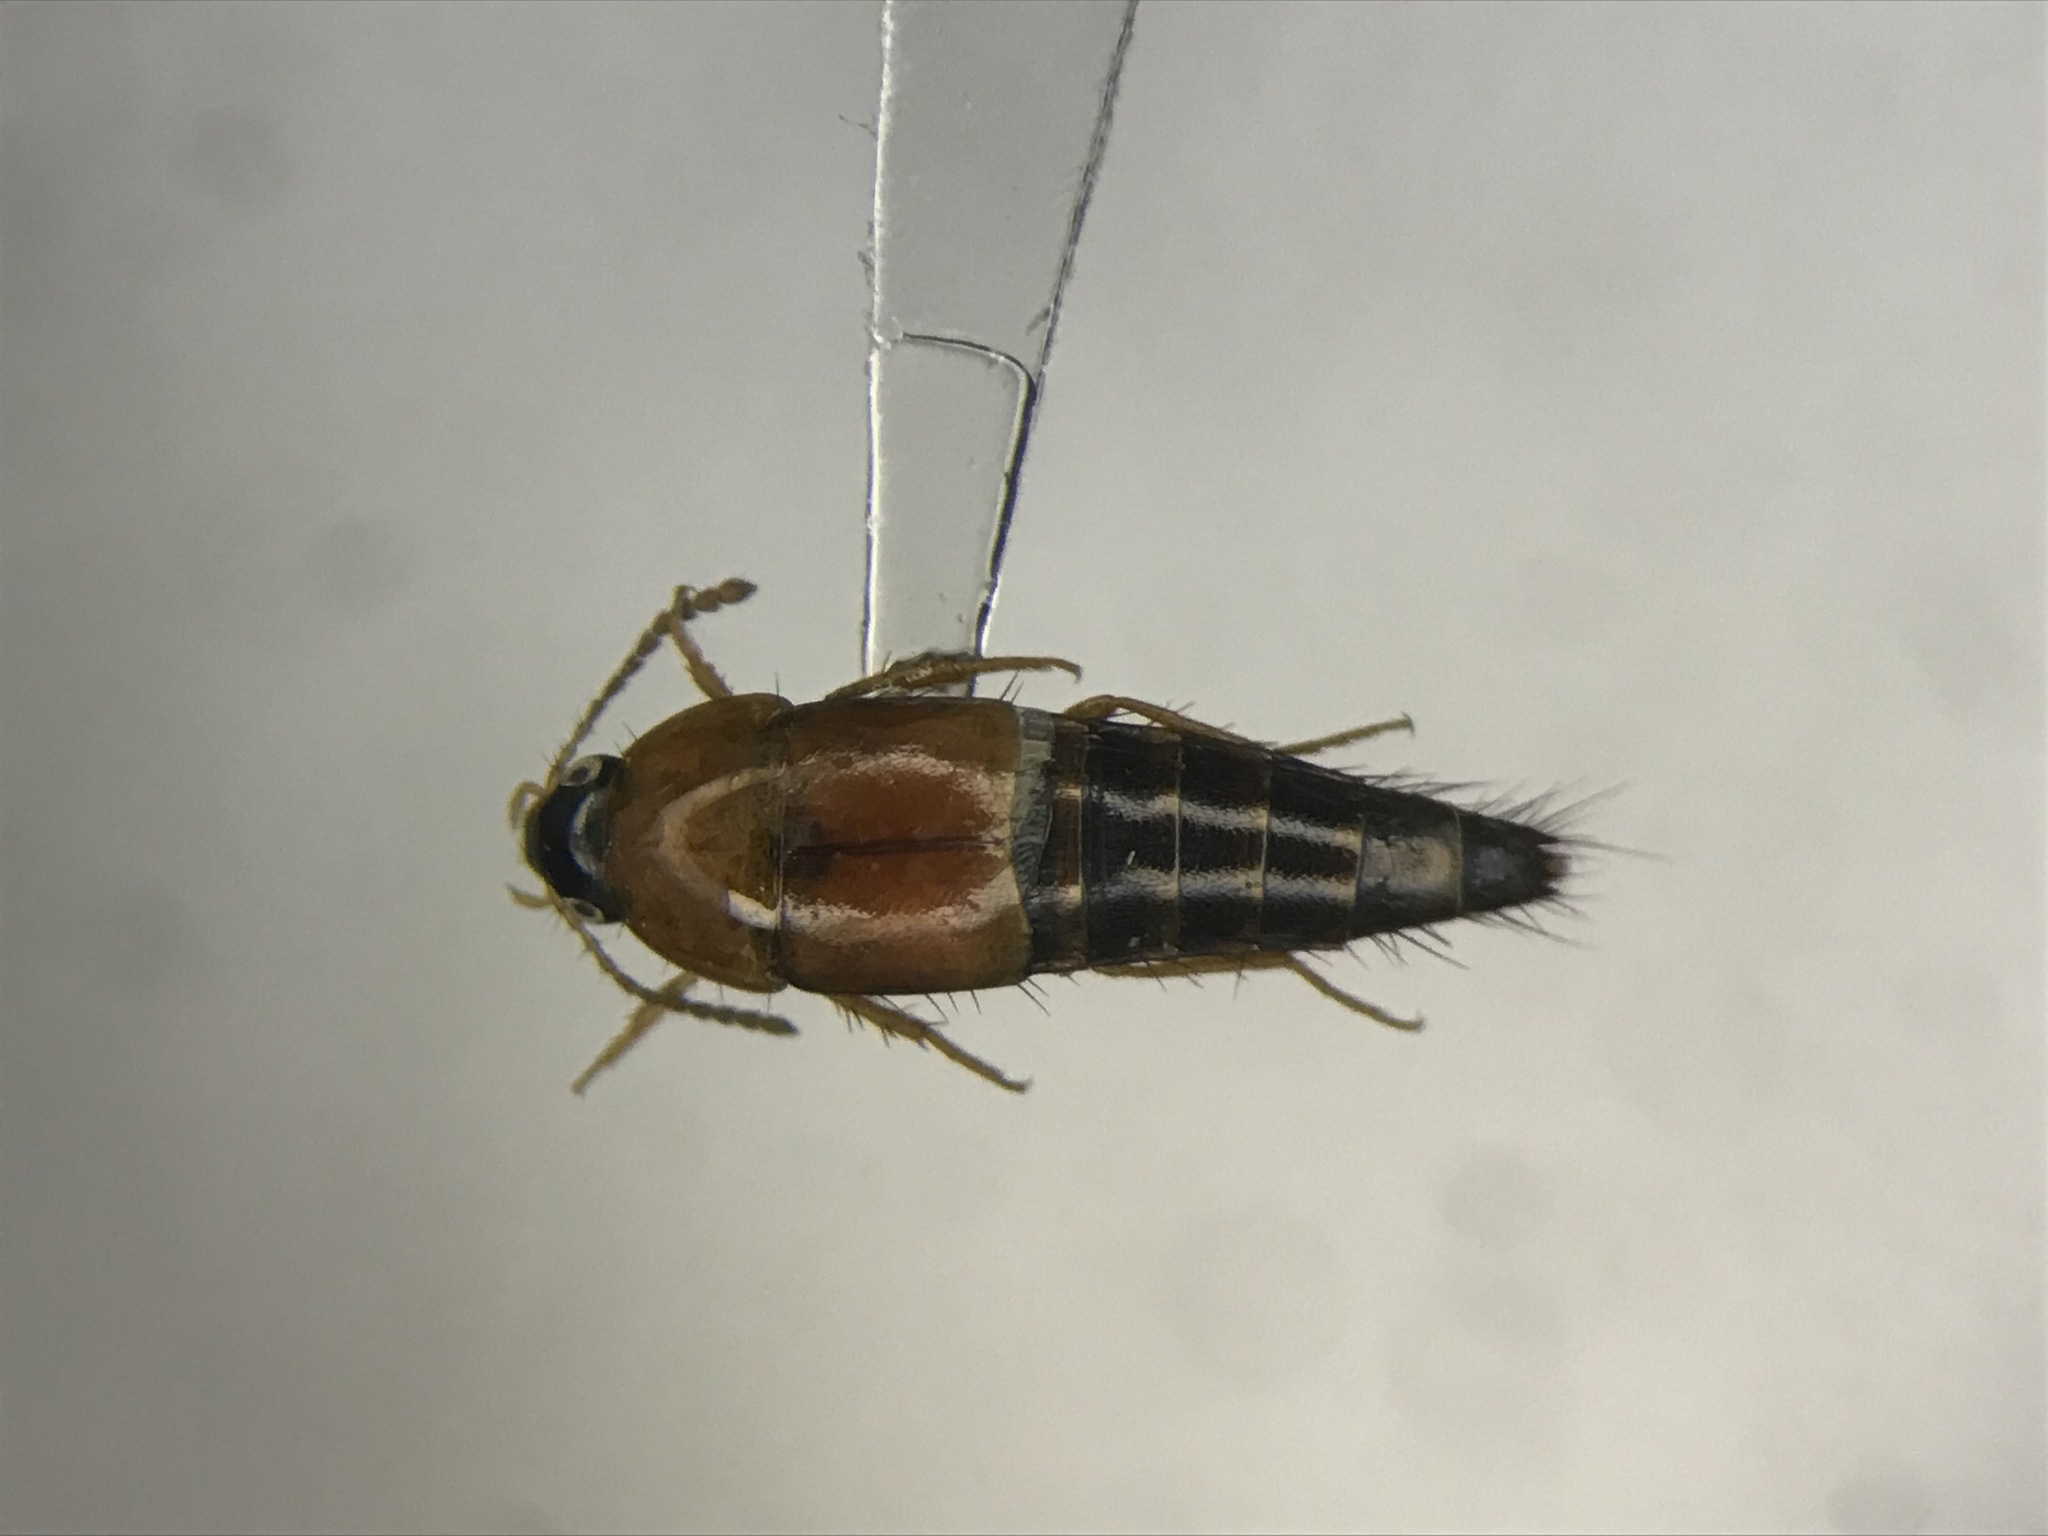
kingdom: Animalia
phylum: Arthropoda
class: Insecta
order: Coleoptera
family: Staphylinidae
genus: Tachyporus
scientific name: Tachyporus dispar
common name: Staph beetle
